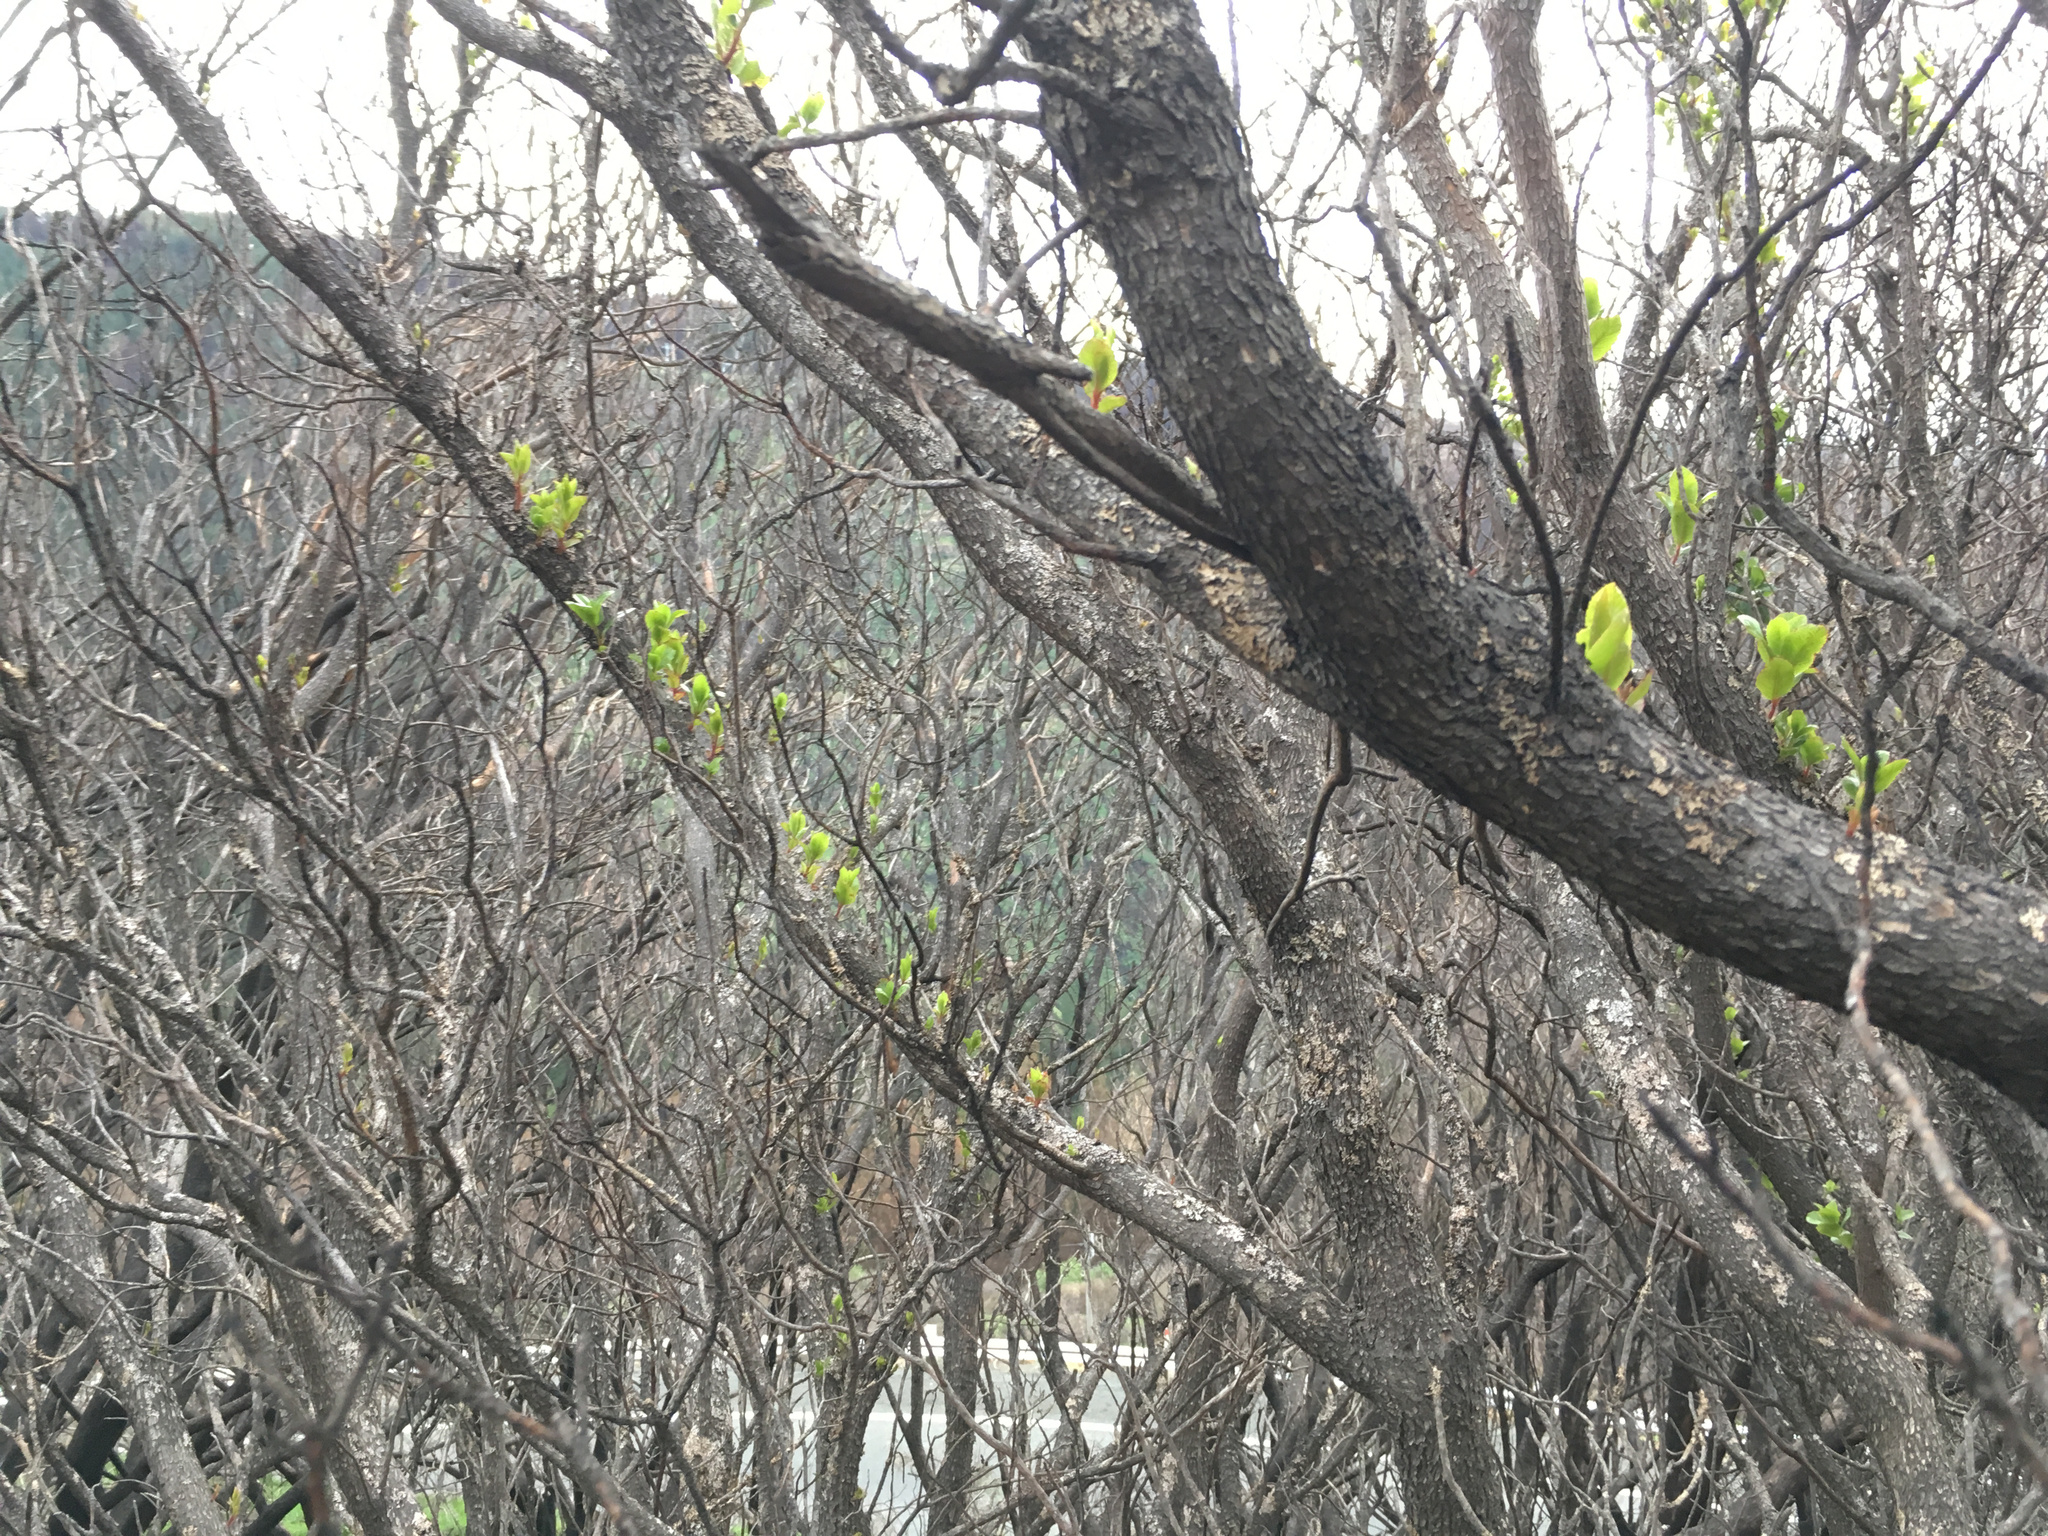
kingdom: Plantae
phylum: Tracheophyta
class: Magnoliopsida
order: Ericales
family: Ericaceae
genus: Arbutus
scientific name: Arbutus unedo
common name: Strawberry-tree
